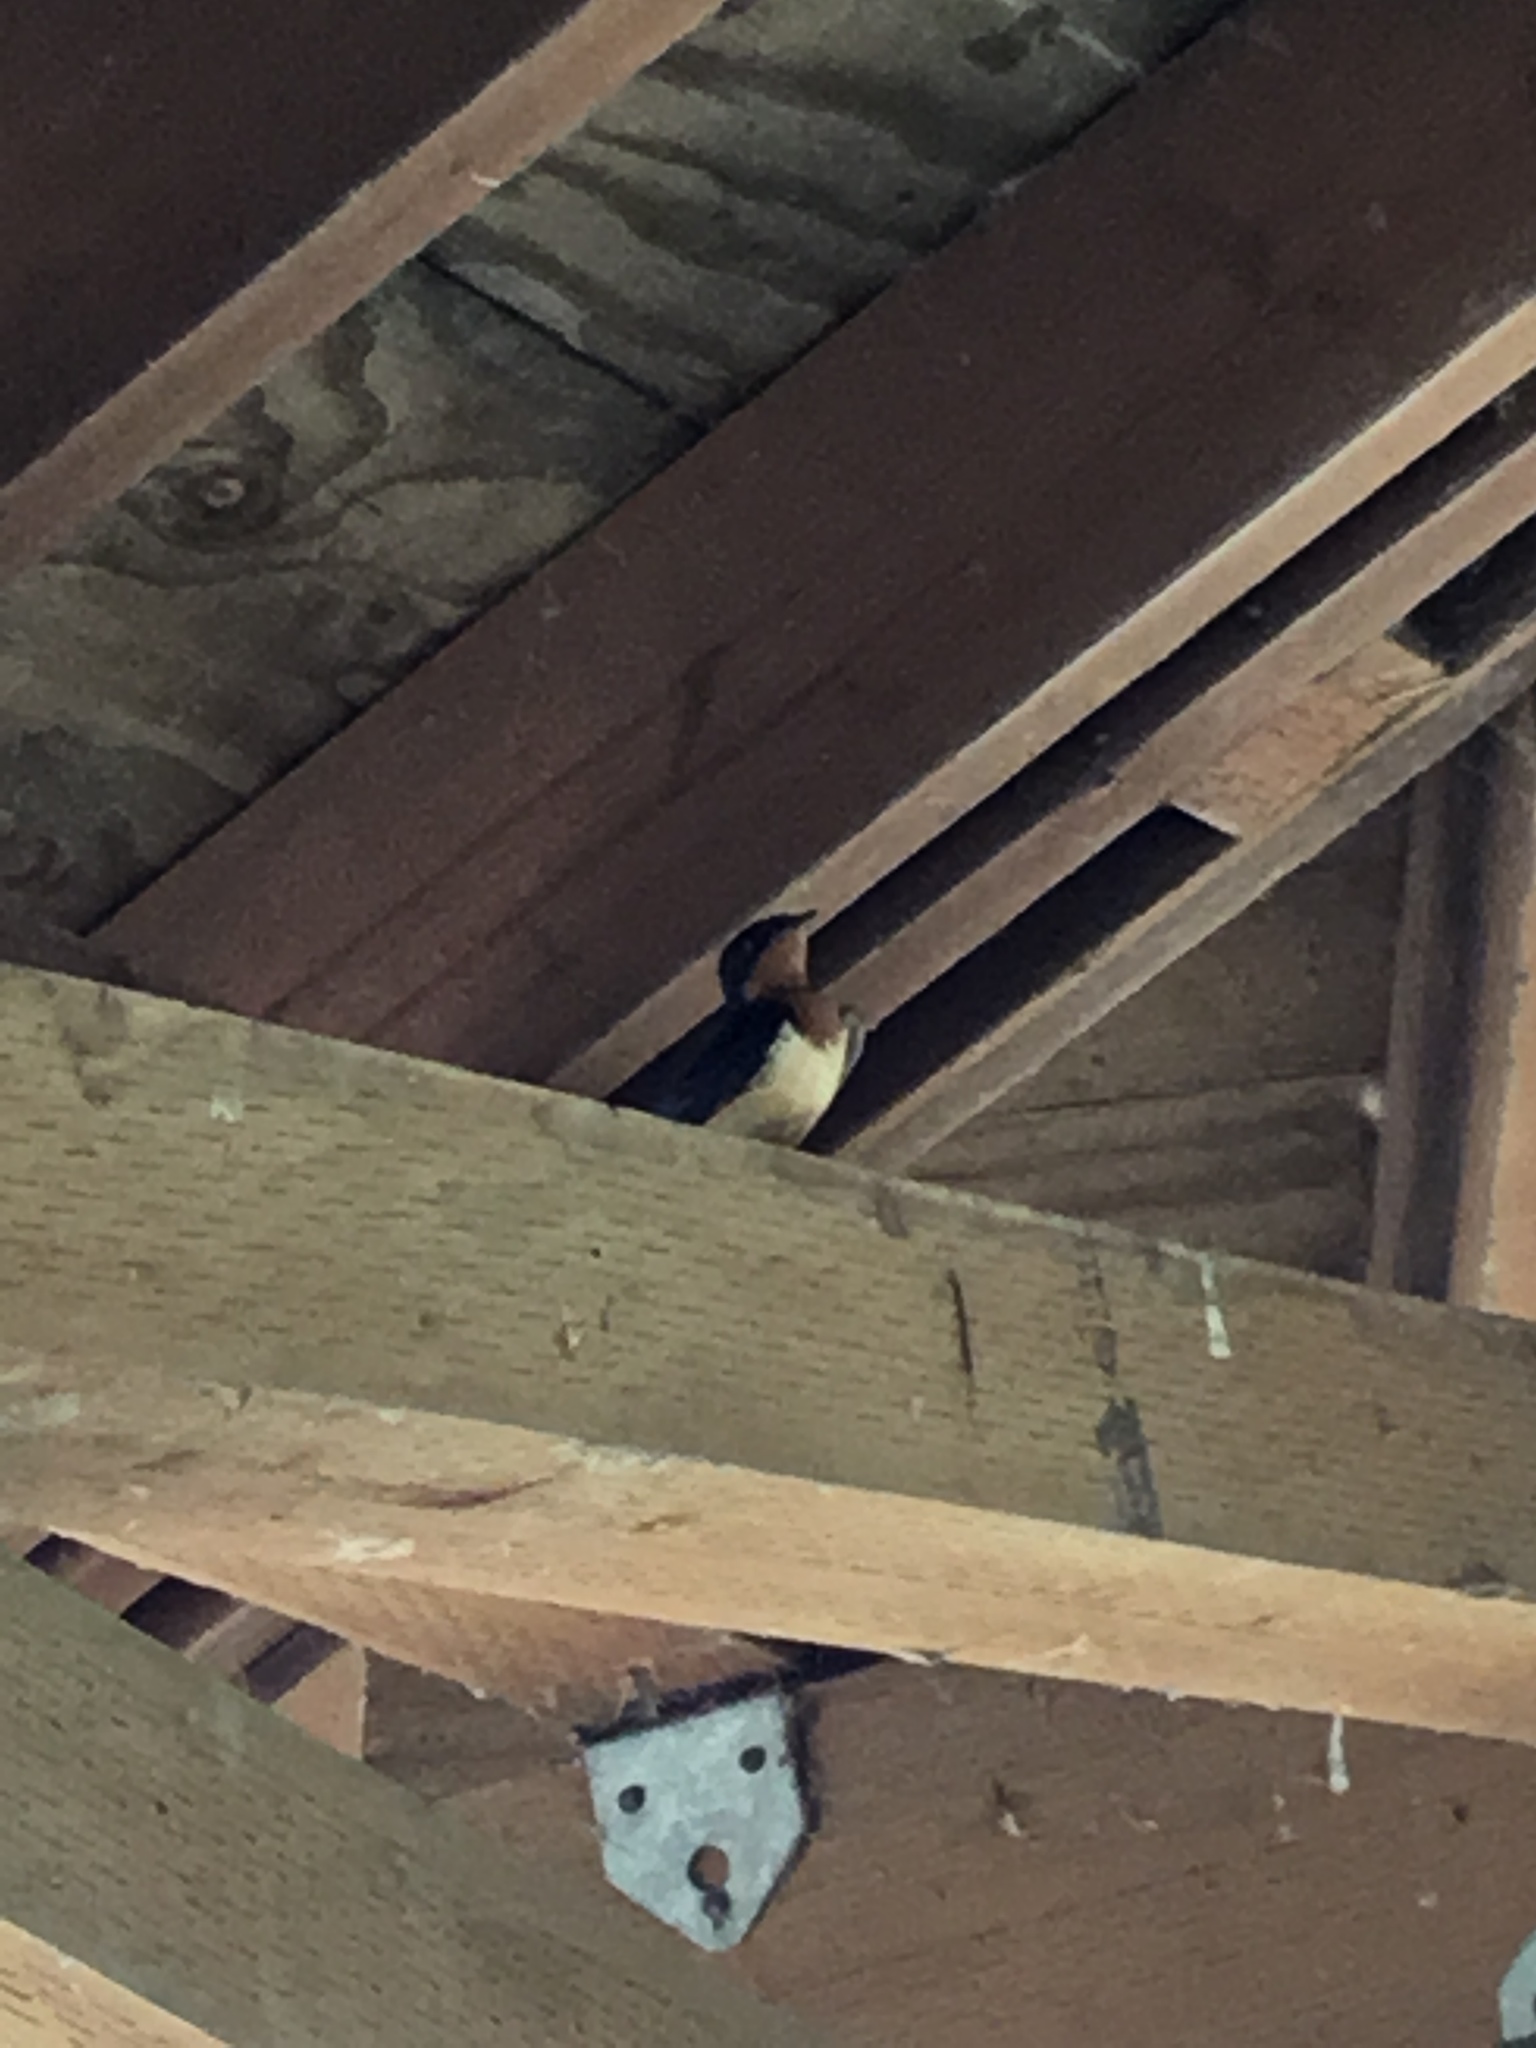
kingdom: Animalia
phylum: Chordata
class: Aves
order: Passeriformes
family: Hirundinidae
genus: Hirundo
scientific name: Hirundo rustica
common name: Barn swallow
